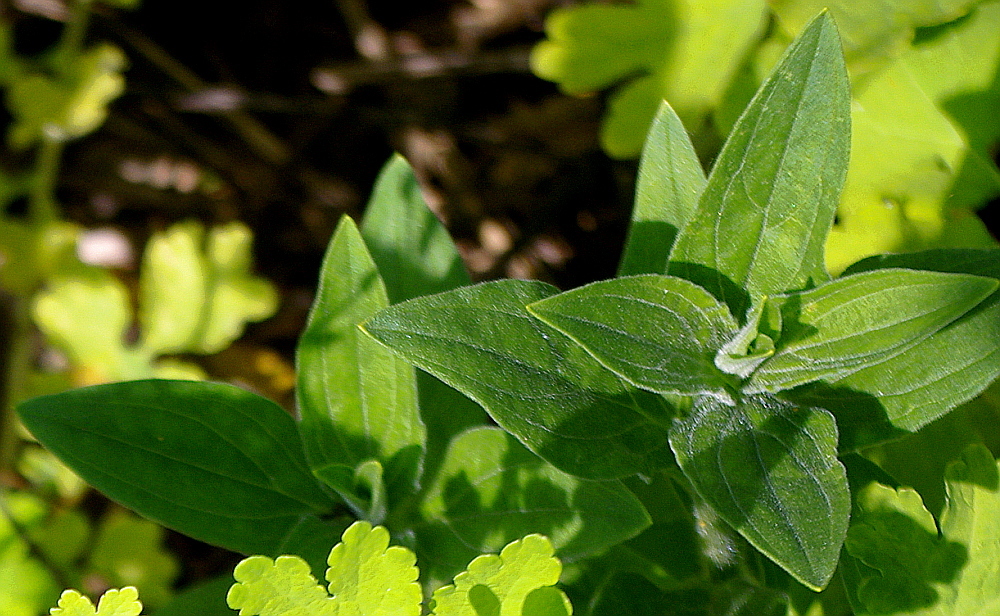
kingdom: Plantae
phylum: Tracheophyta
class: Magnoliopsida
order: Caryophyllales
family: Caryophyllaceae
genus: Silene
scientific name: Silene latifolia
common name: White campion
